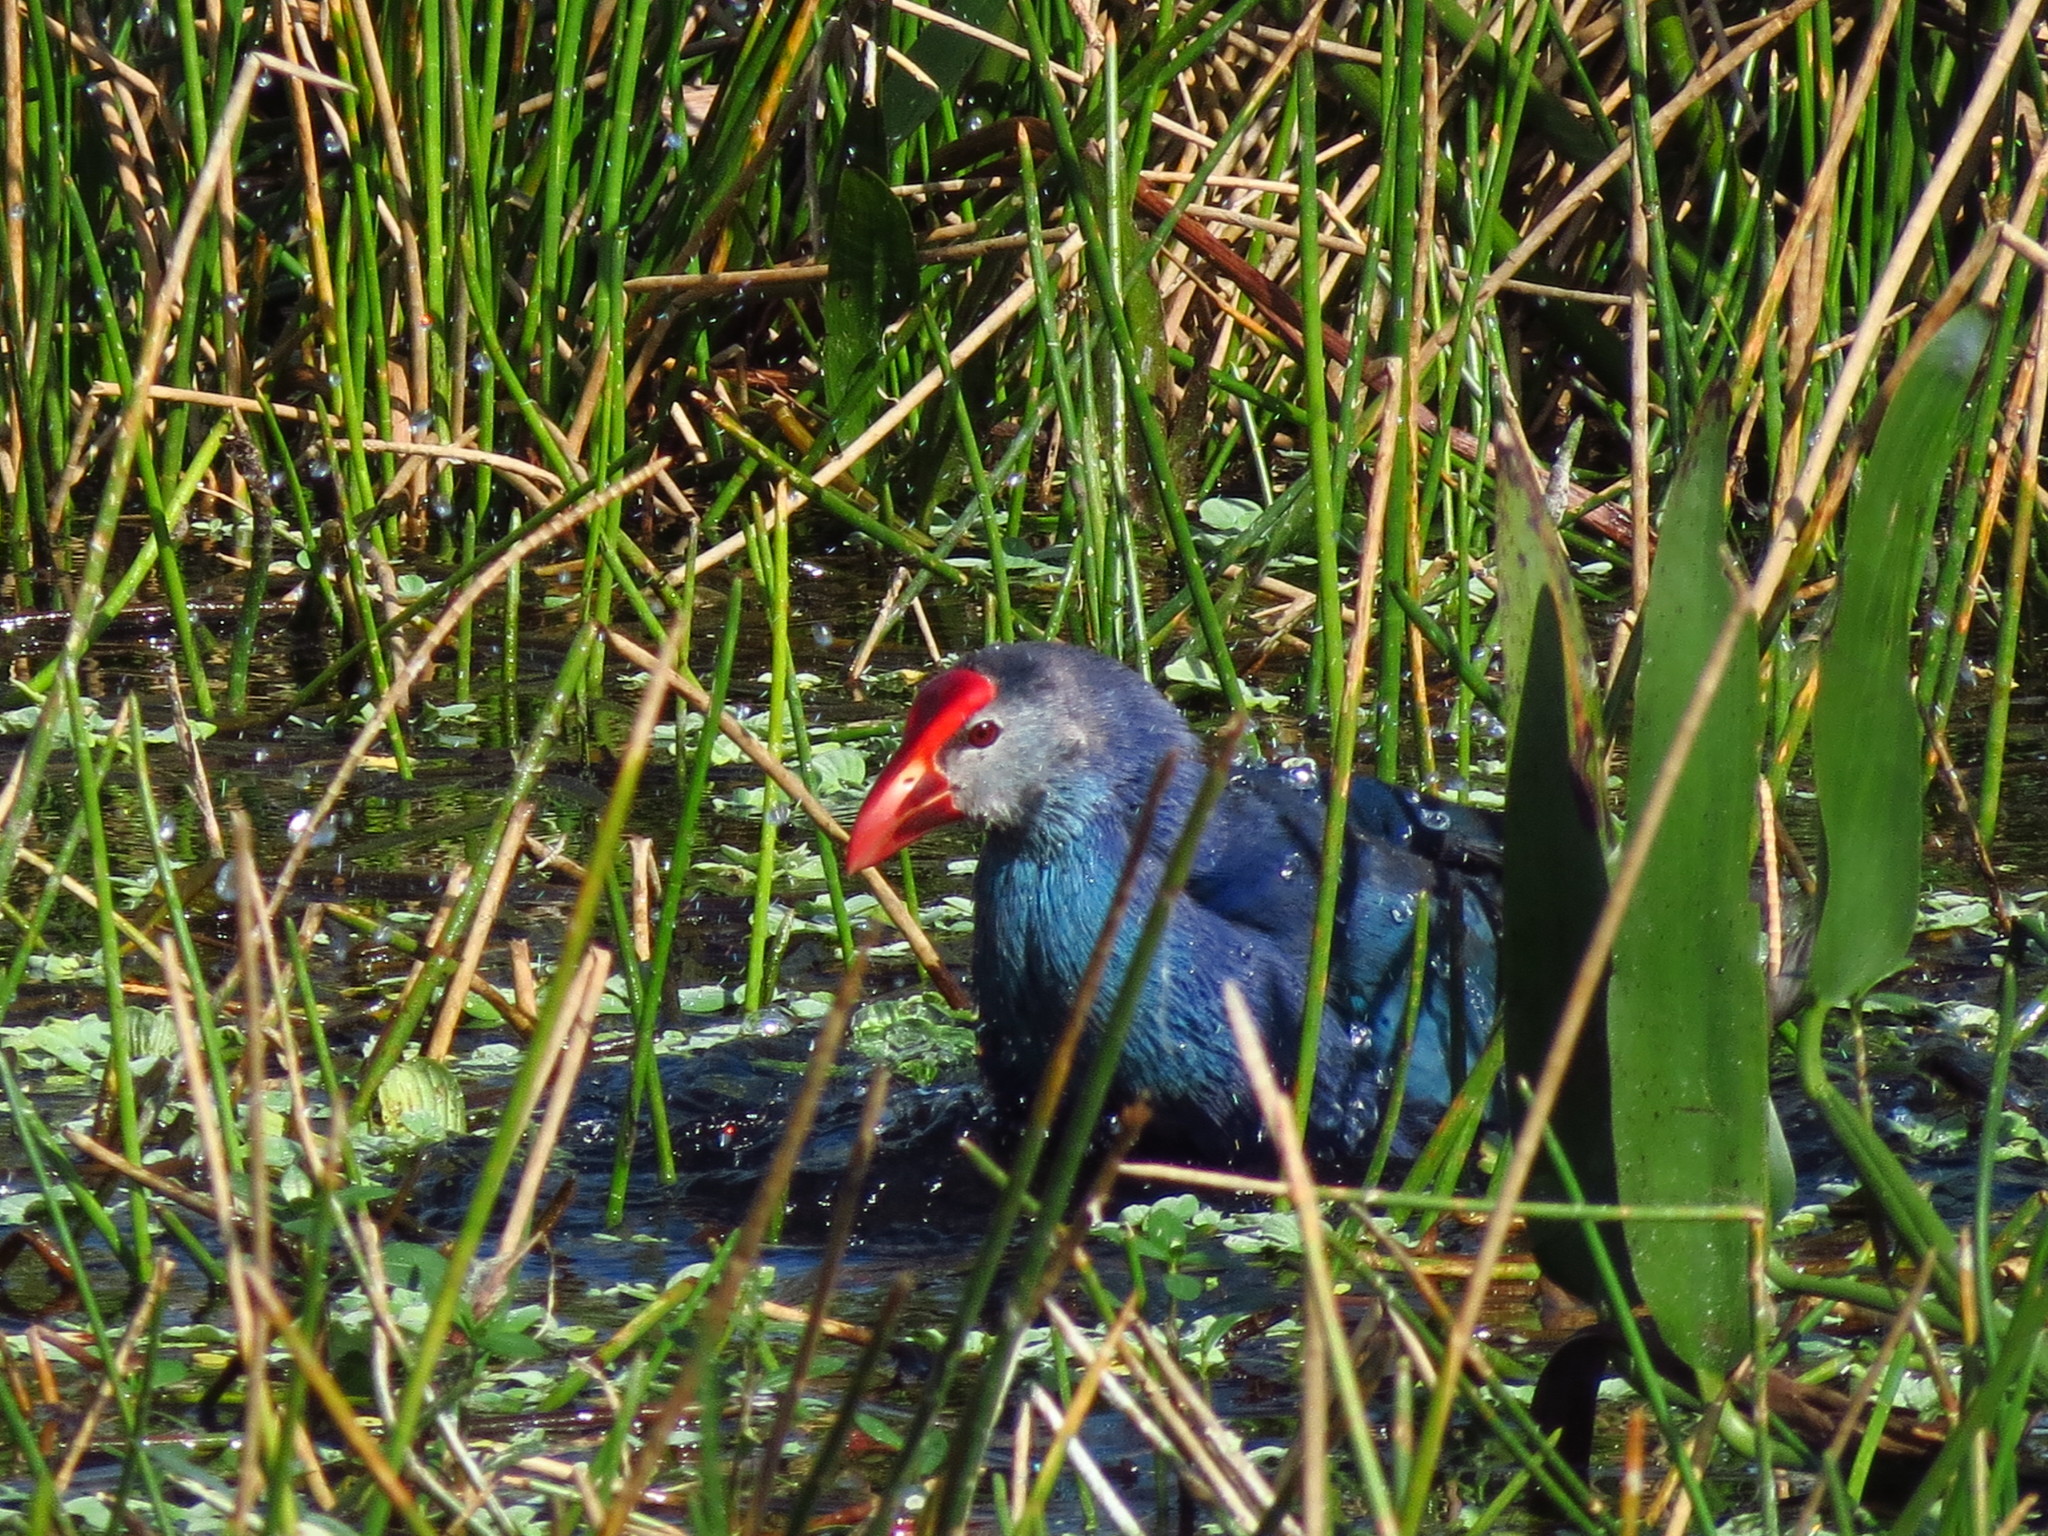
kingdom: Animalia
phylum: Chordata
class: Aves
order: Gruiformes
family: Rallidae
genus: Porphyrio
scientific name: Porphyrio porphyrio
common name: Purple swamphen
